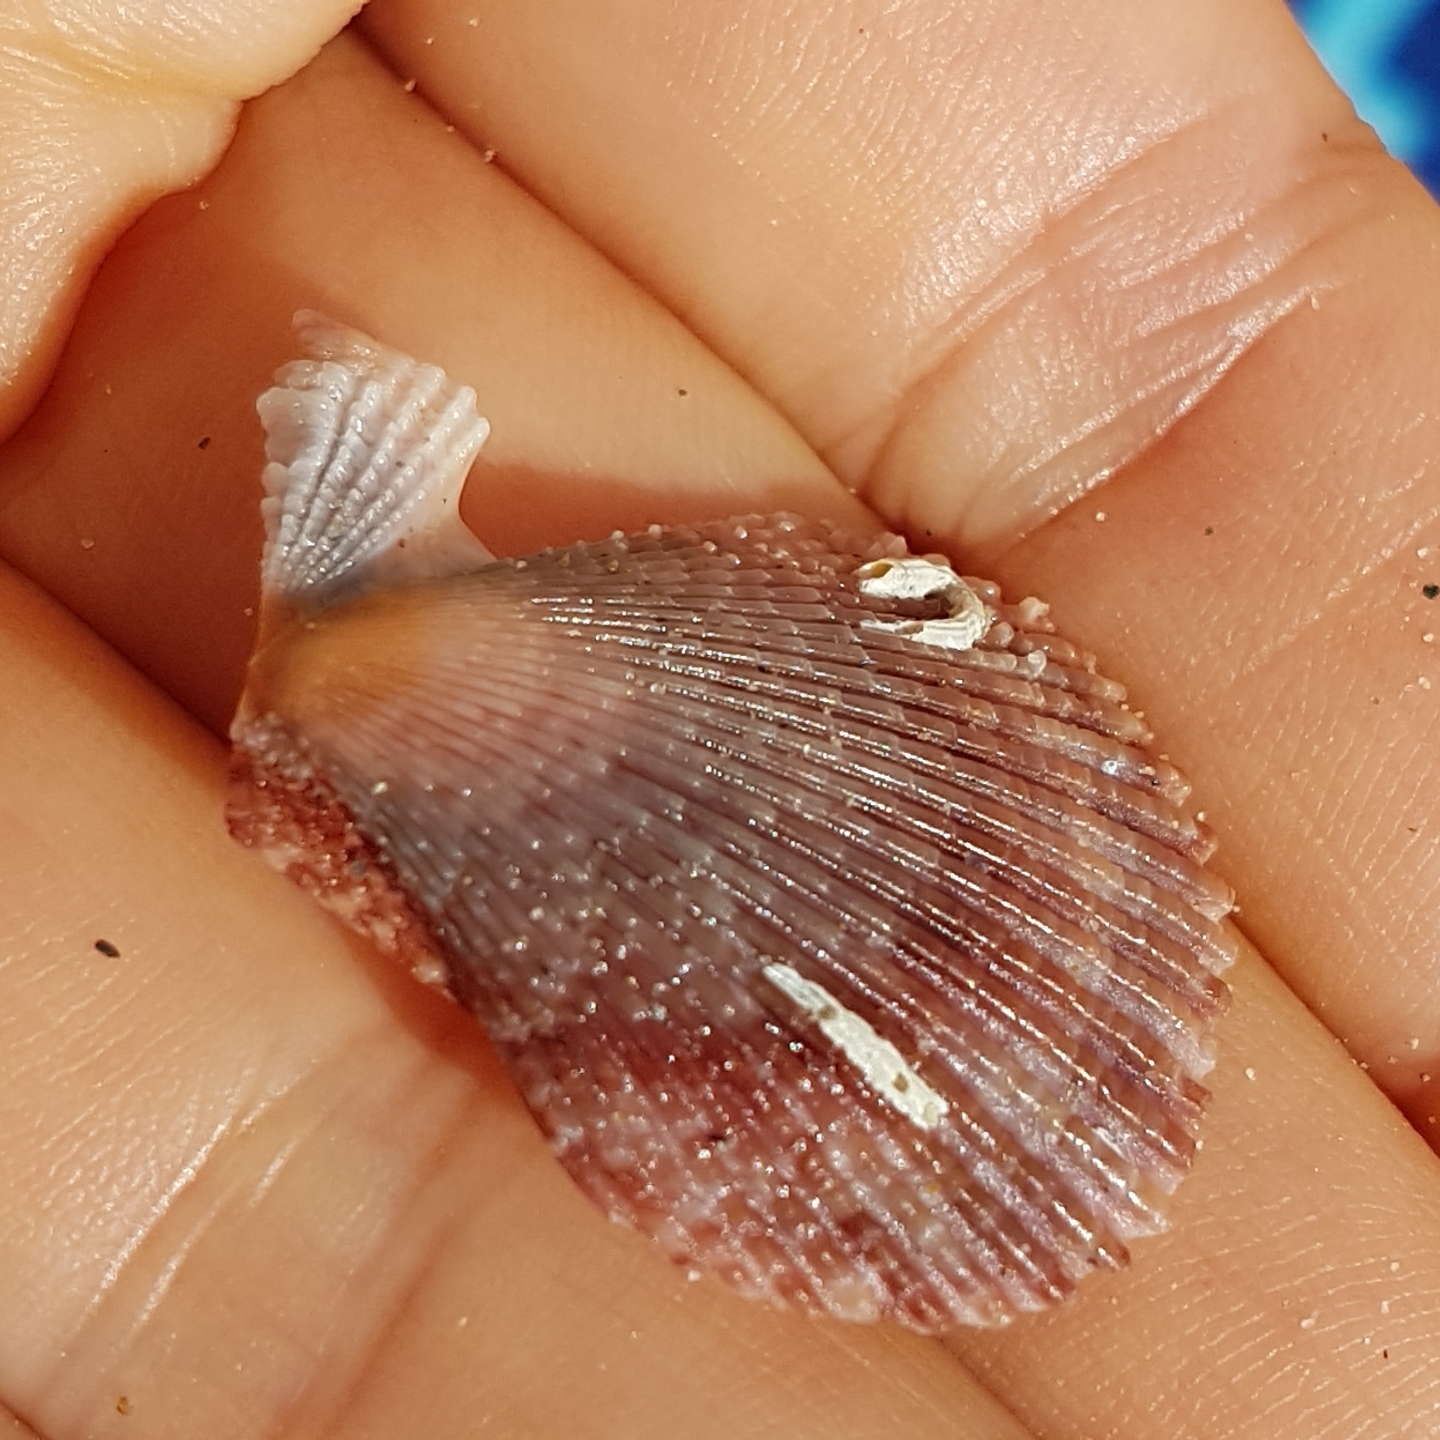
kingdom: Animalia
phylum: Mollusca
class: Bivalvia
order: Pectinida
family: Pectinidae
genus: Mimachlamys
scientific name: Mimachlamys varia
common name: Variegated scallop
